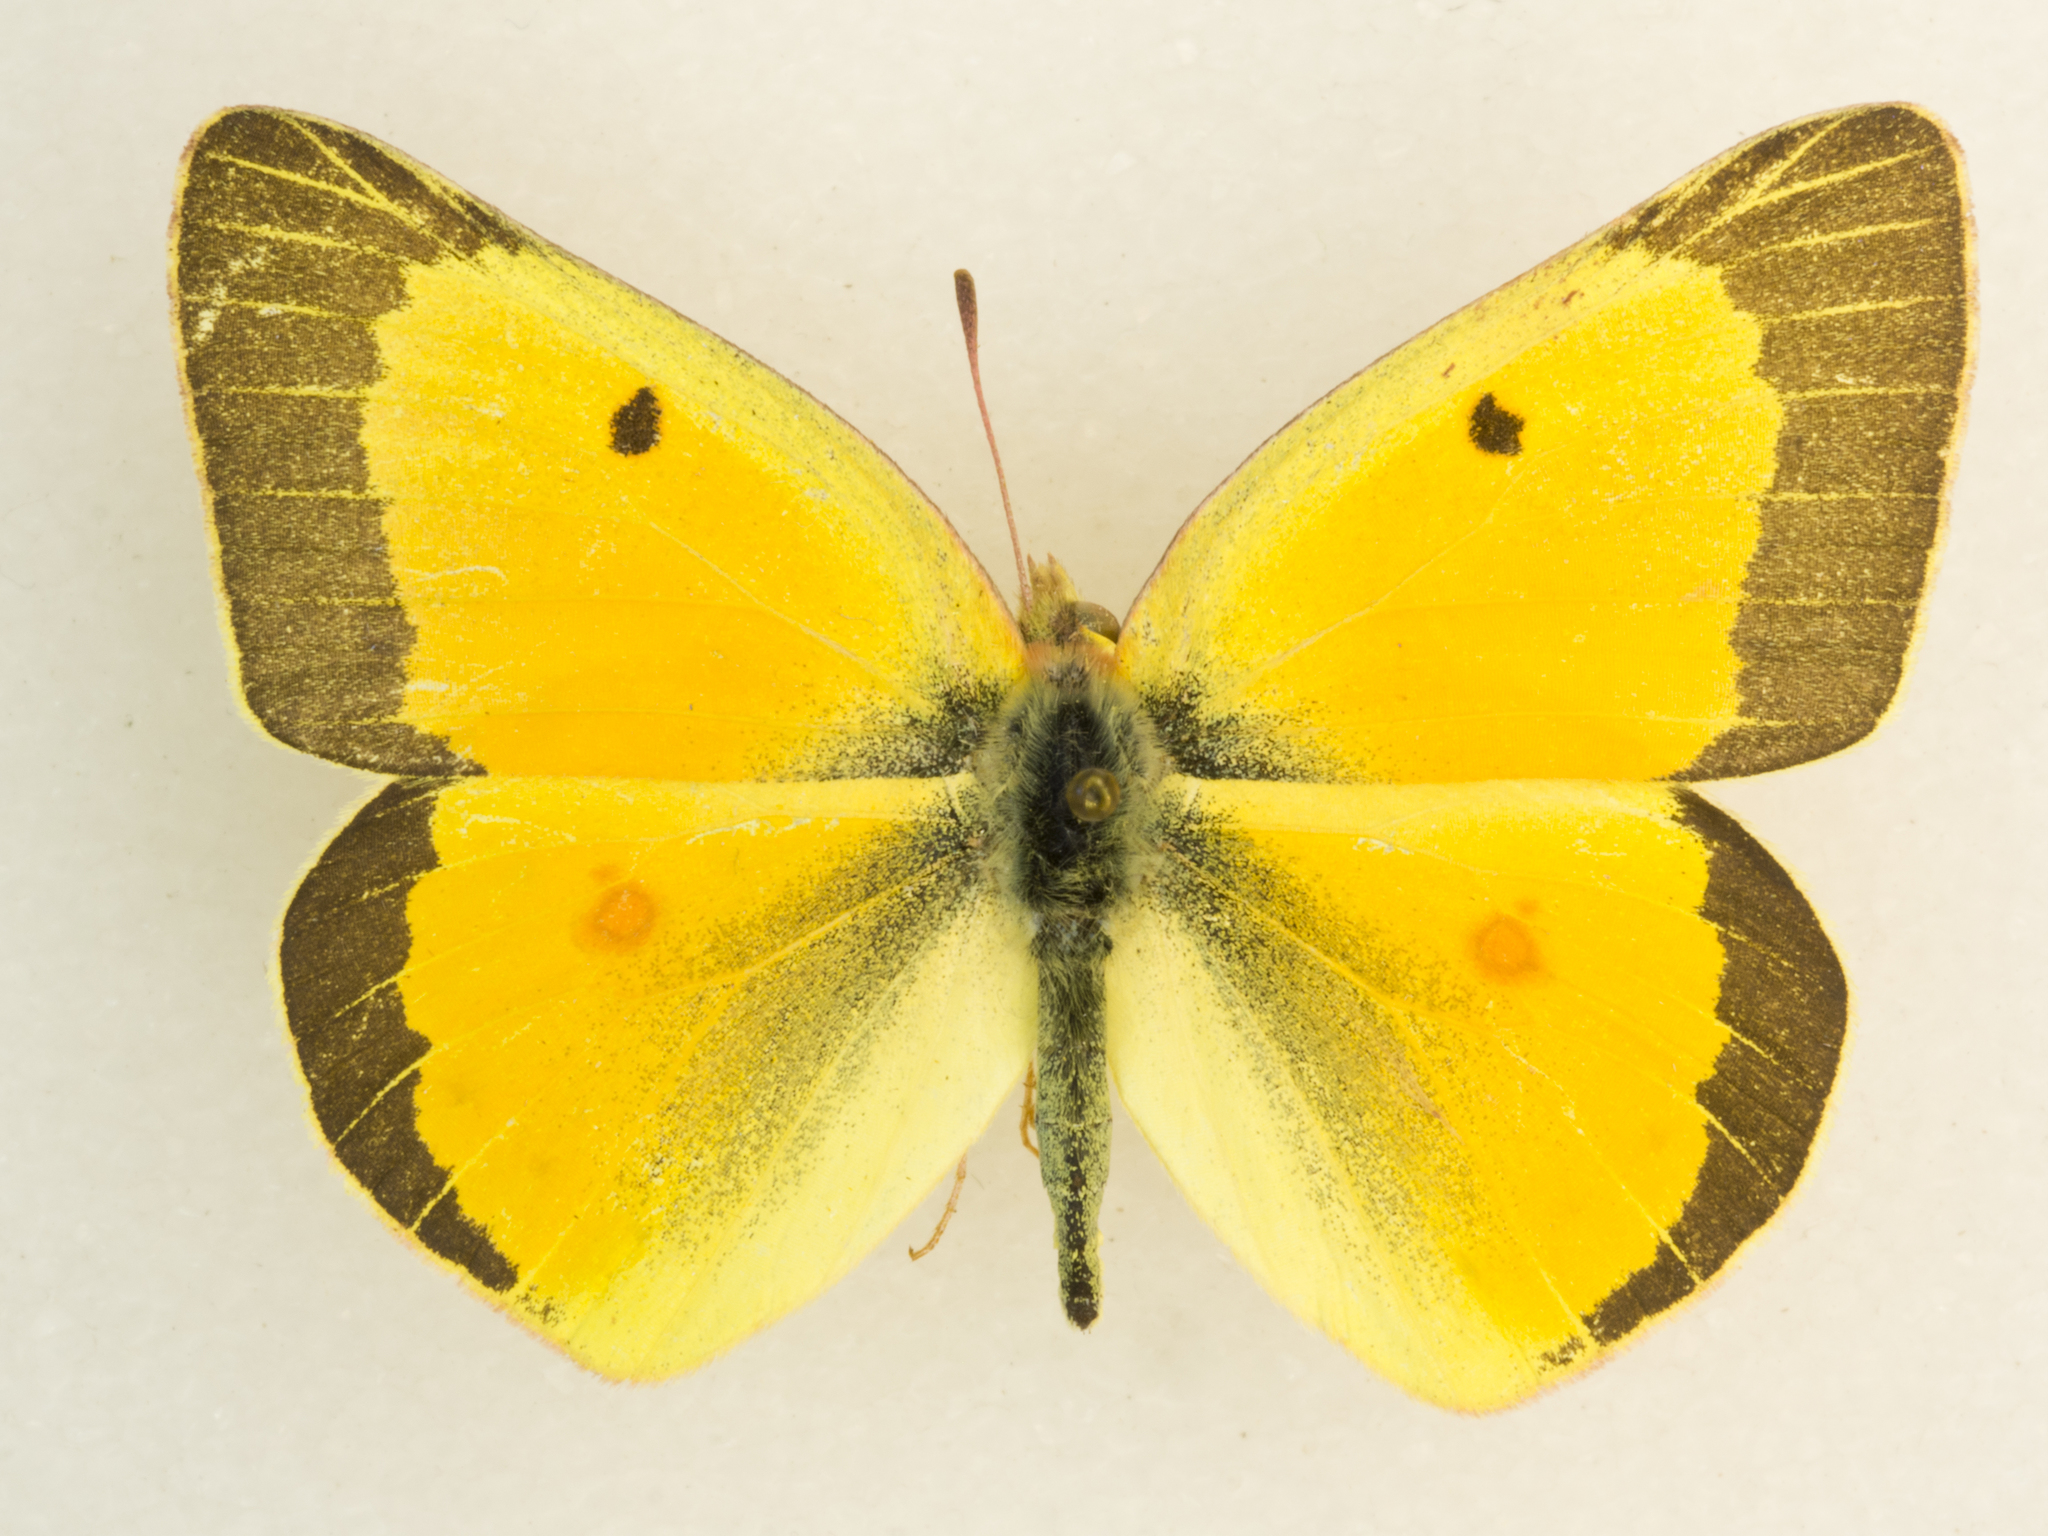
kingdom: Animalia
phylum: Arthropoda
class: Insecta
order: Lepidoptera
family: Pieridae
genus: Colias
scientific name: Colias eurytheme
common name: Alfalfa butterfly
